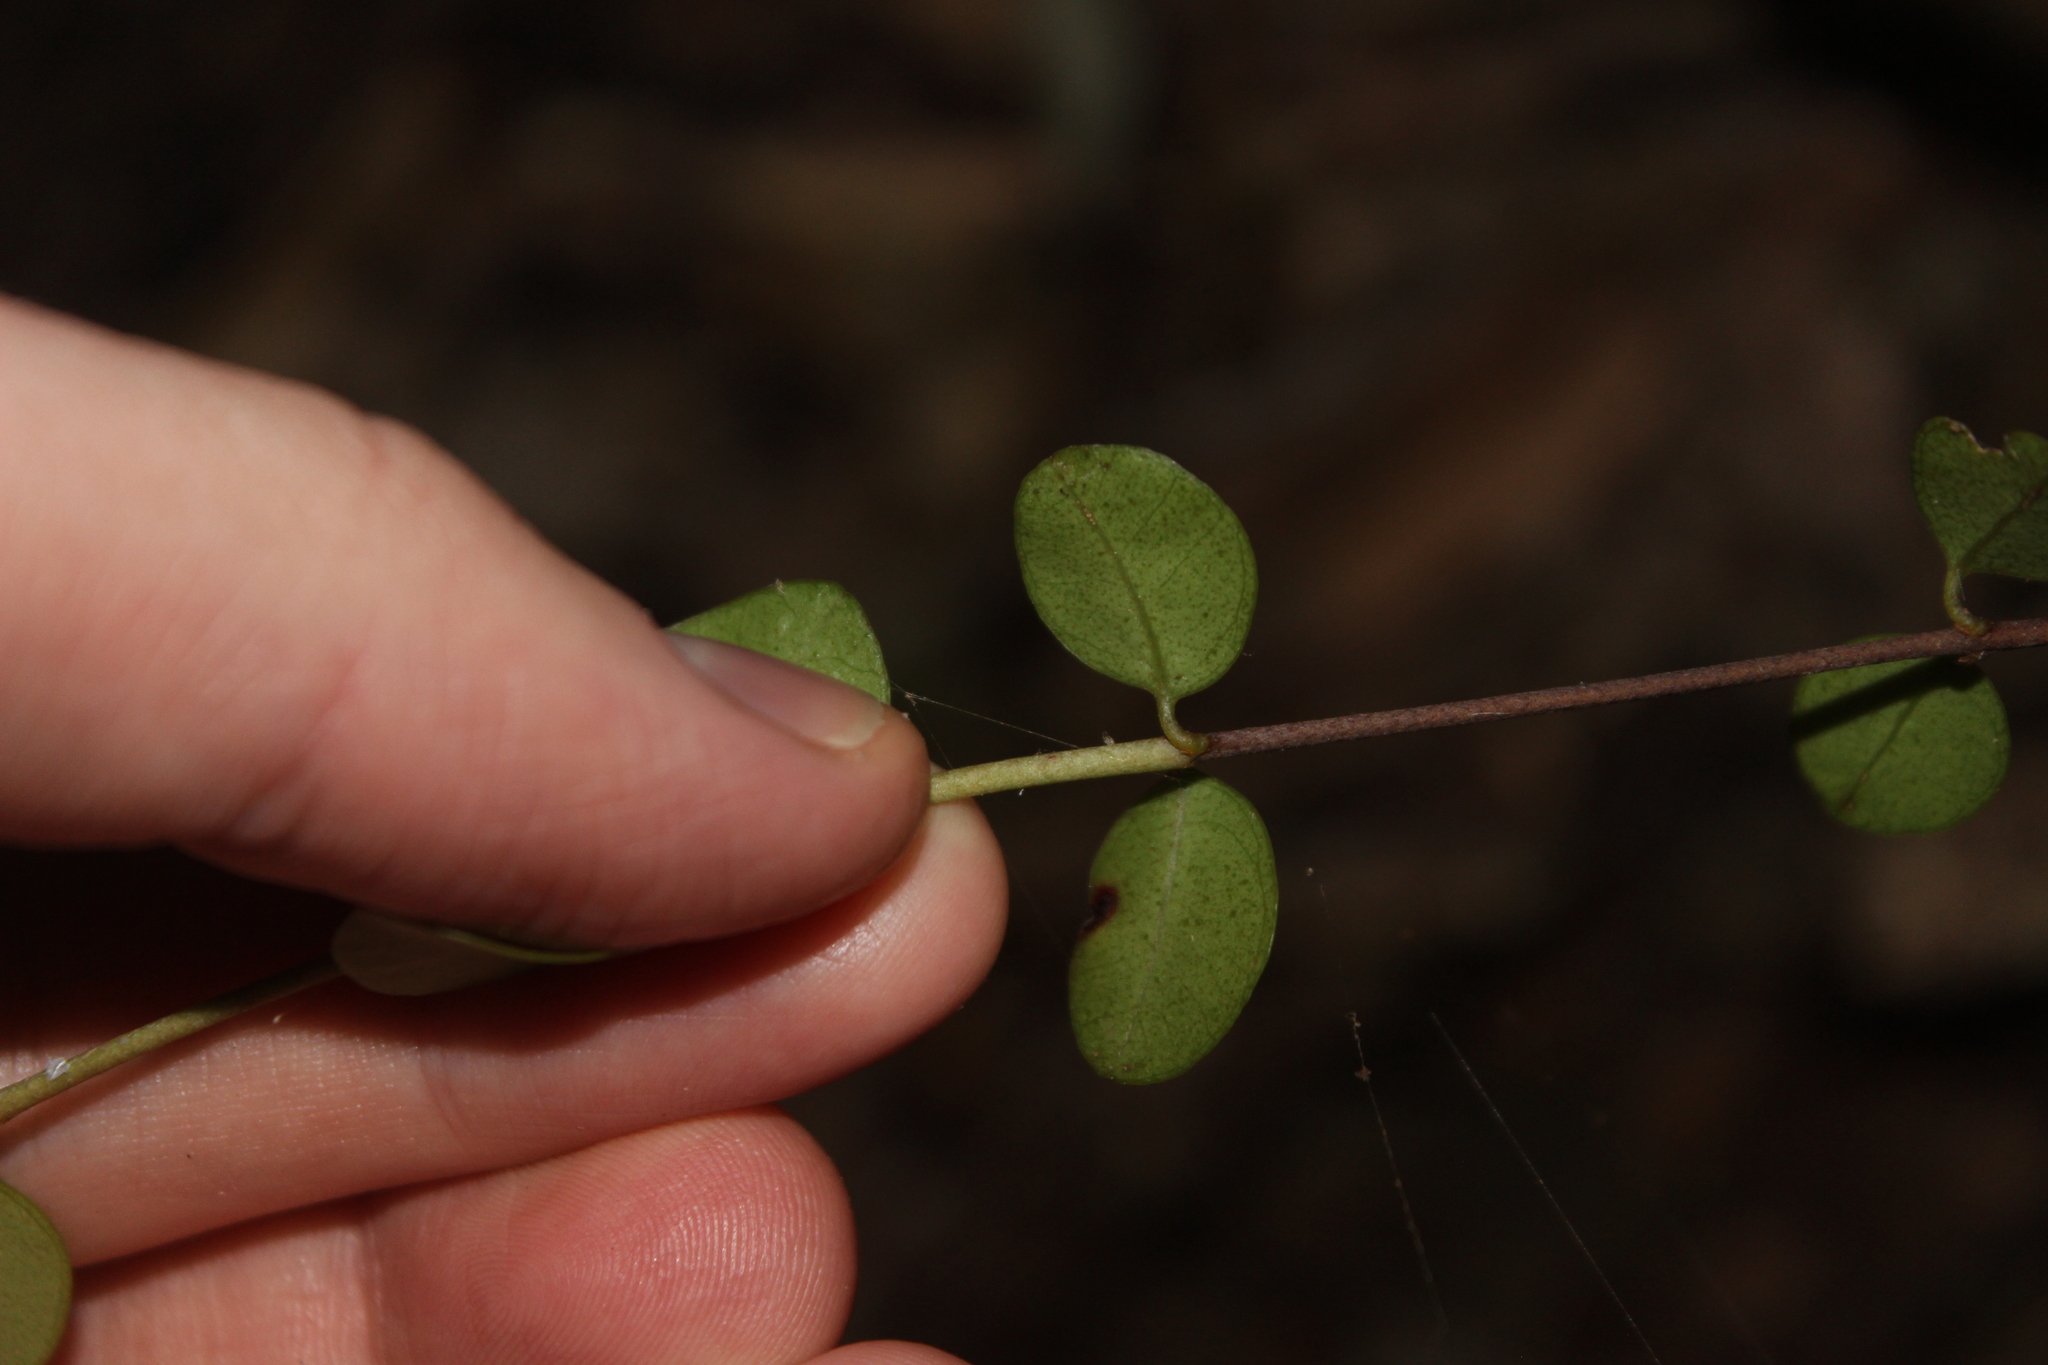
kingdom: Plantae
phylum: Tracheophyta
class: Magnoliopsida
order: Myrtales
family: Myrtaceae
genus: Metrosideros
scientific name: Metrosideros fulgens
